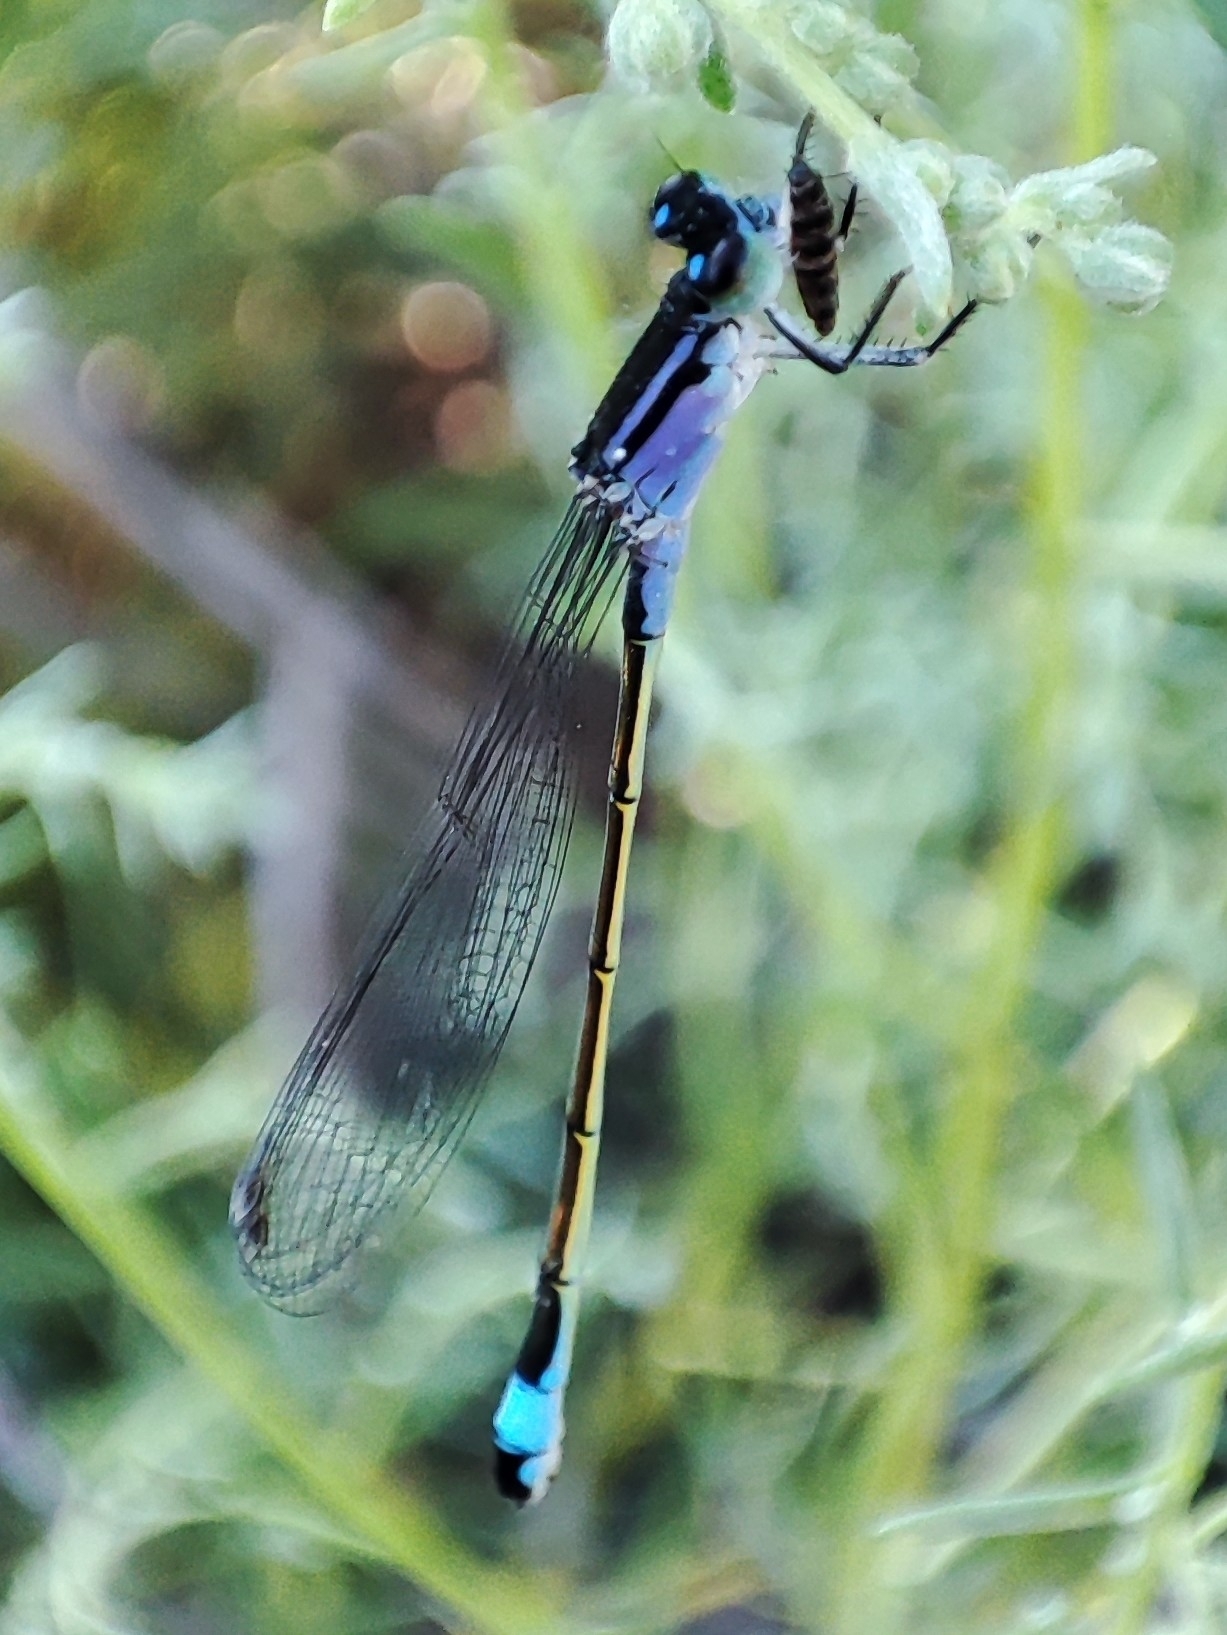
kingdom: Animalia
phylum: Arthropoda
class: Insecta
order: Odonata
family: Coenagrionidae
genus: Ischnura
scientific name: Ischnura elegans
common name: Blue-tailed damselfly
